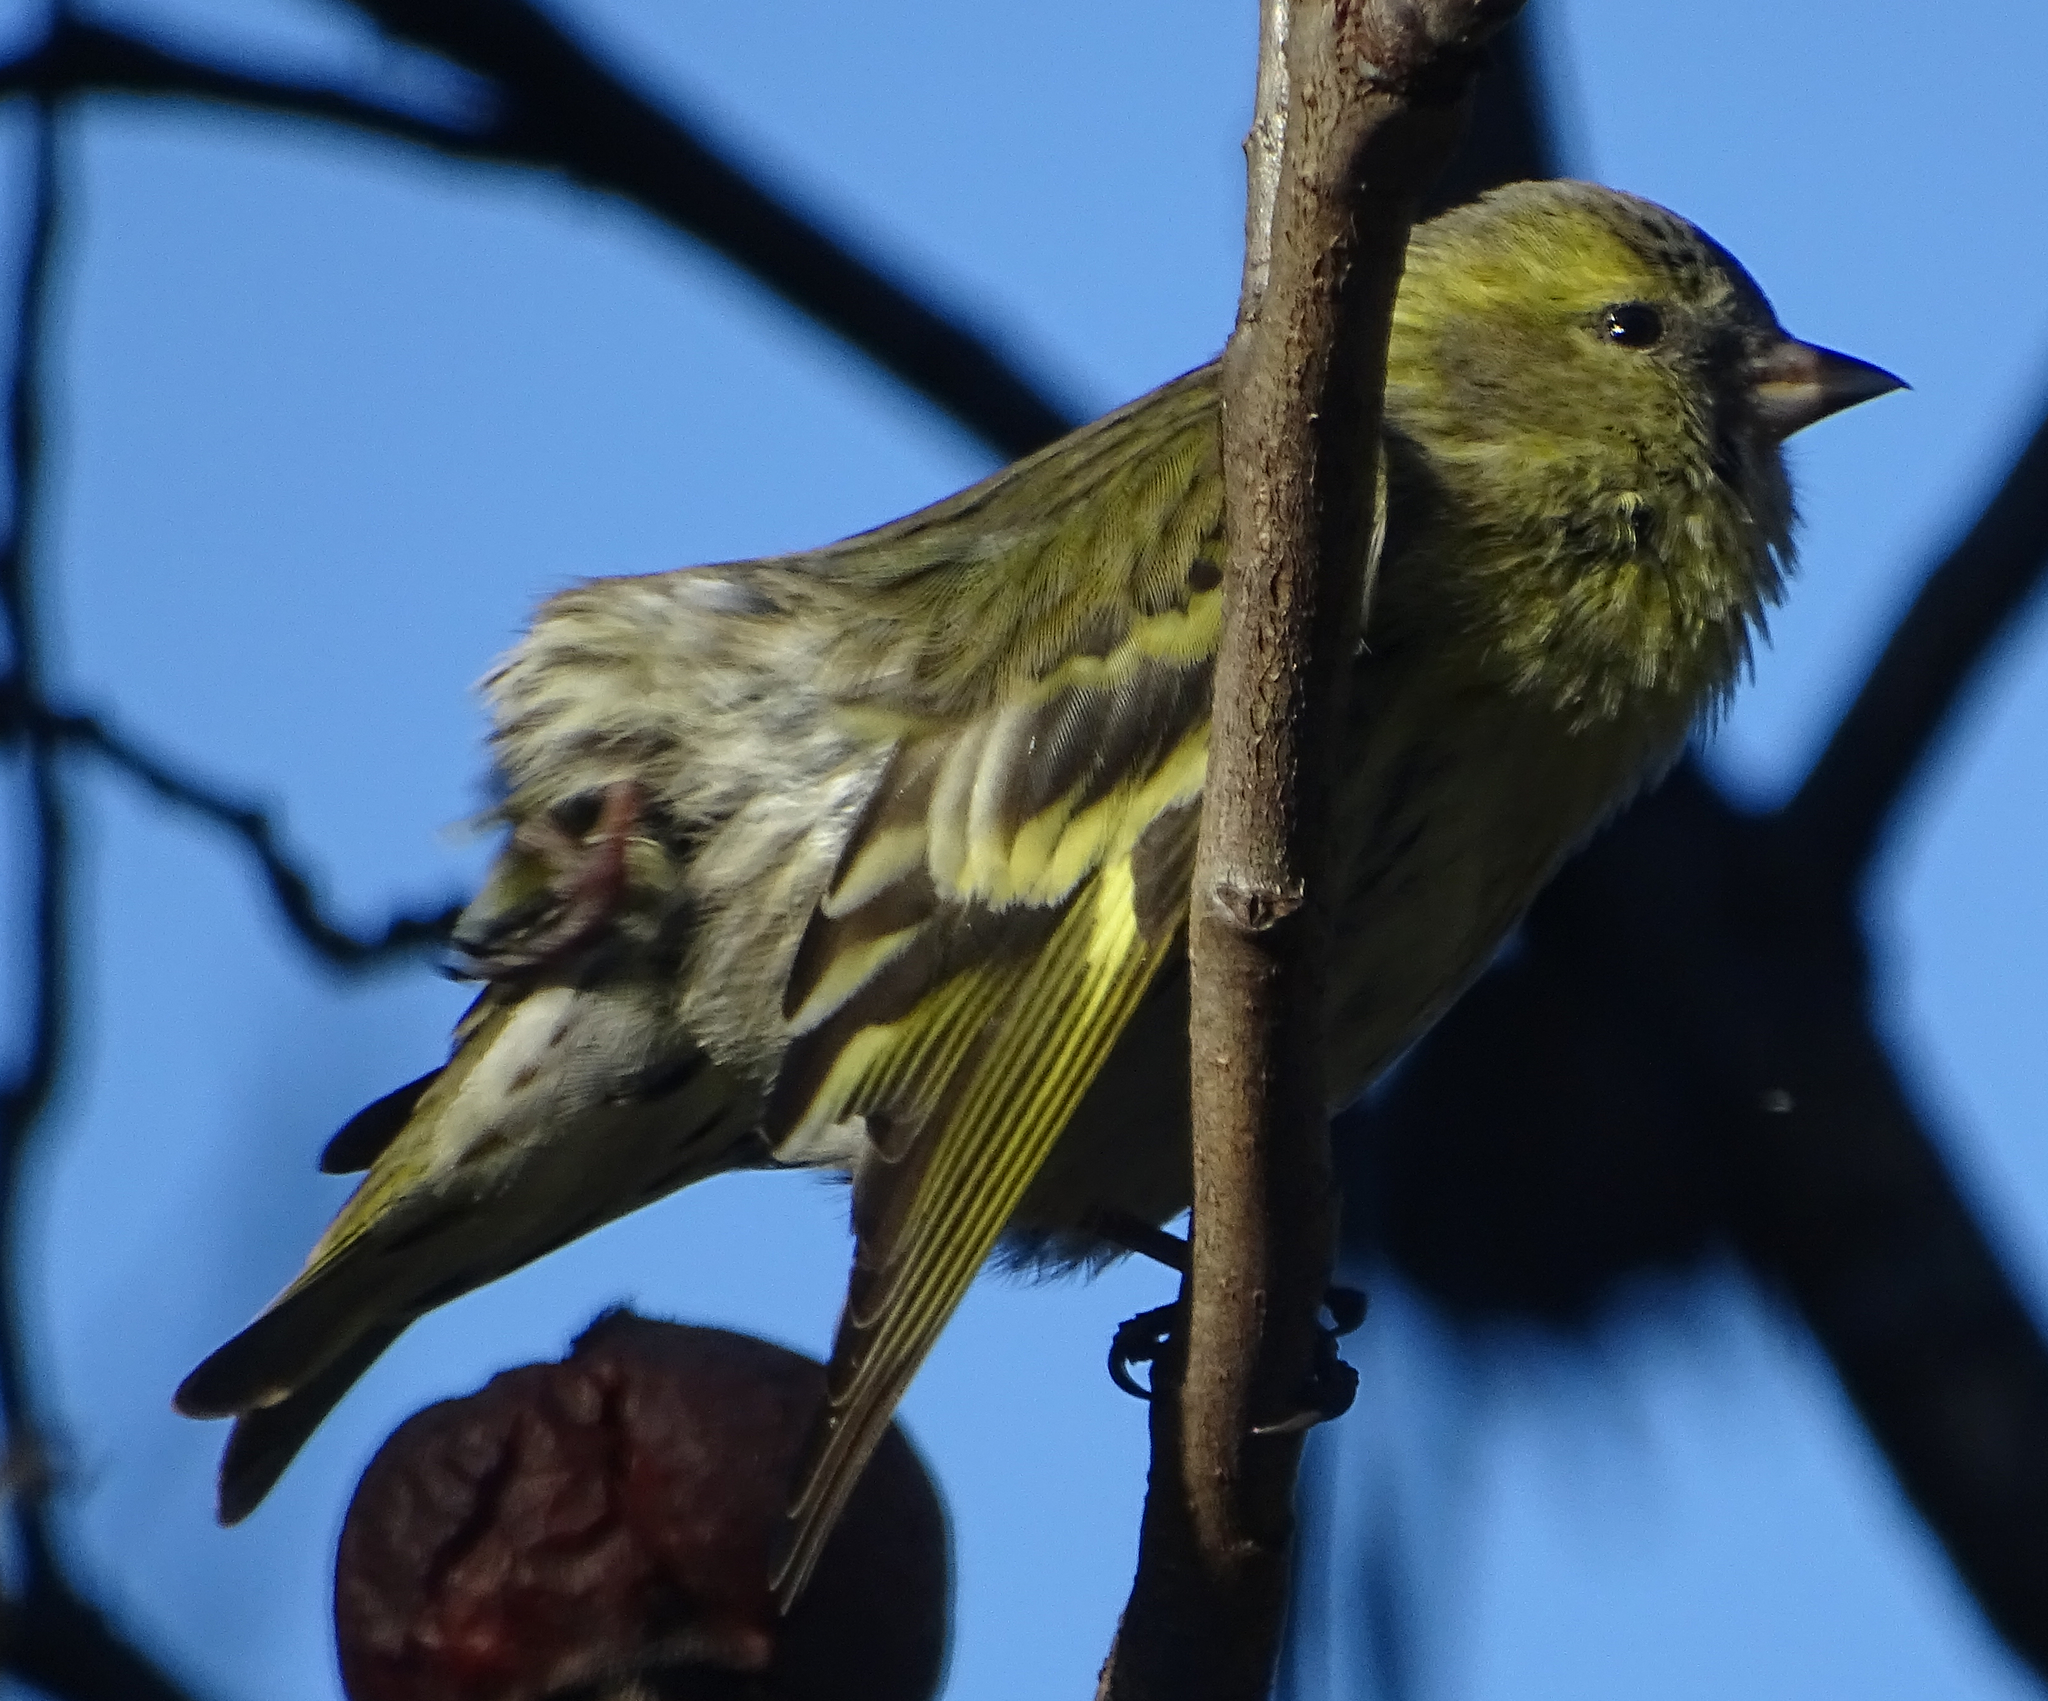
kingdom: Animalia
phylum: Chordata
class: Aves
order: Passeriformes
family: Fringillidae
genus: Spinus
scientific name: Spinus spinus
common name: Eurasian siskin
